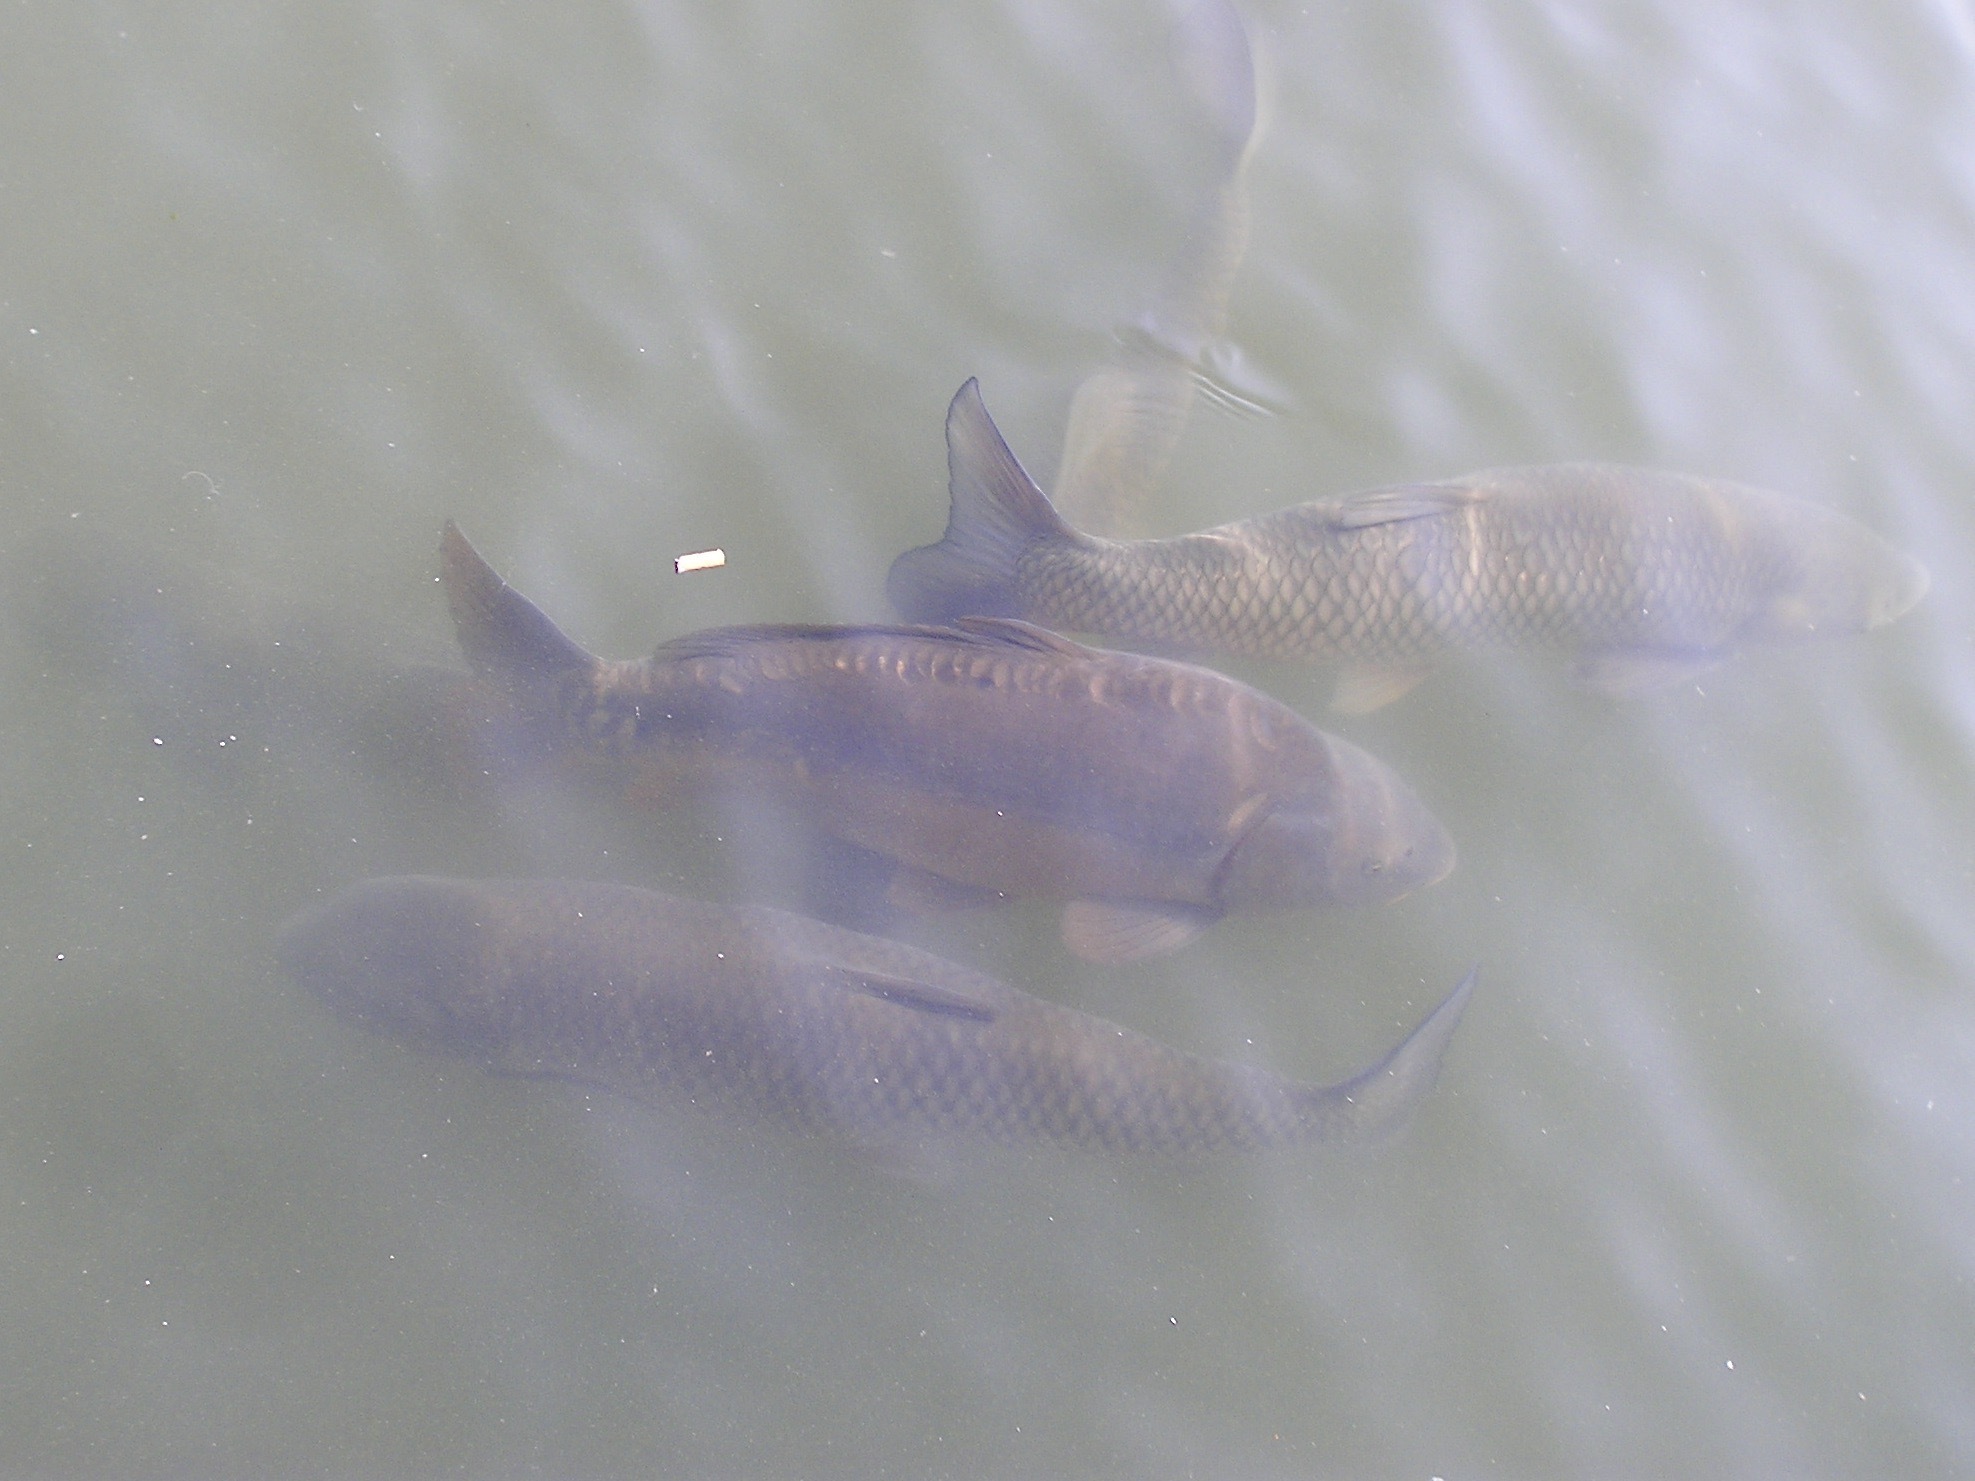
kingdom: Animalia
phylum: Chordata
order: Cypriniformes
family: Cyprinidae
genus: Cyprinus
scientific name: Cyprinus carpio
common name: Common carp
